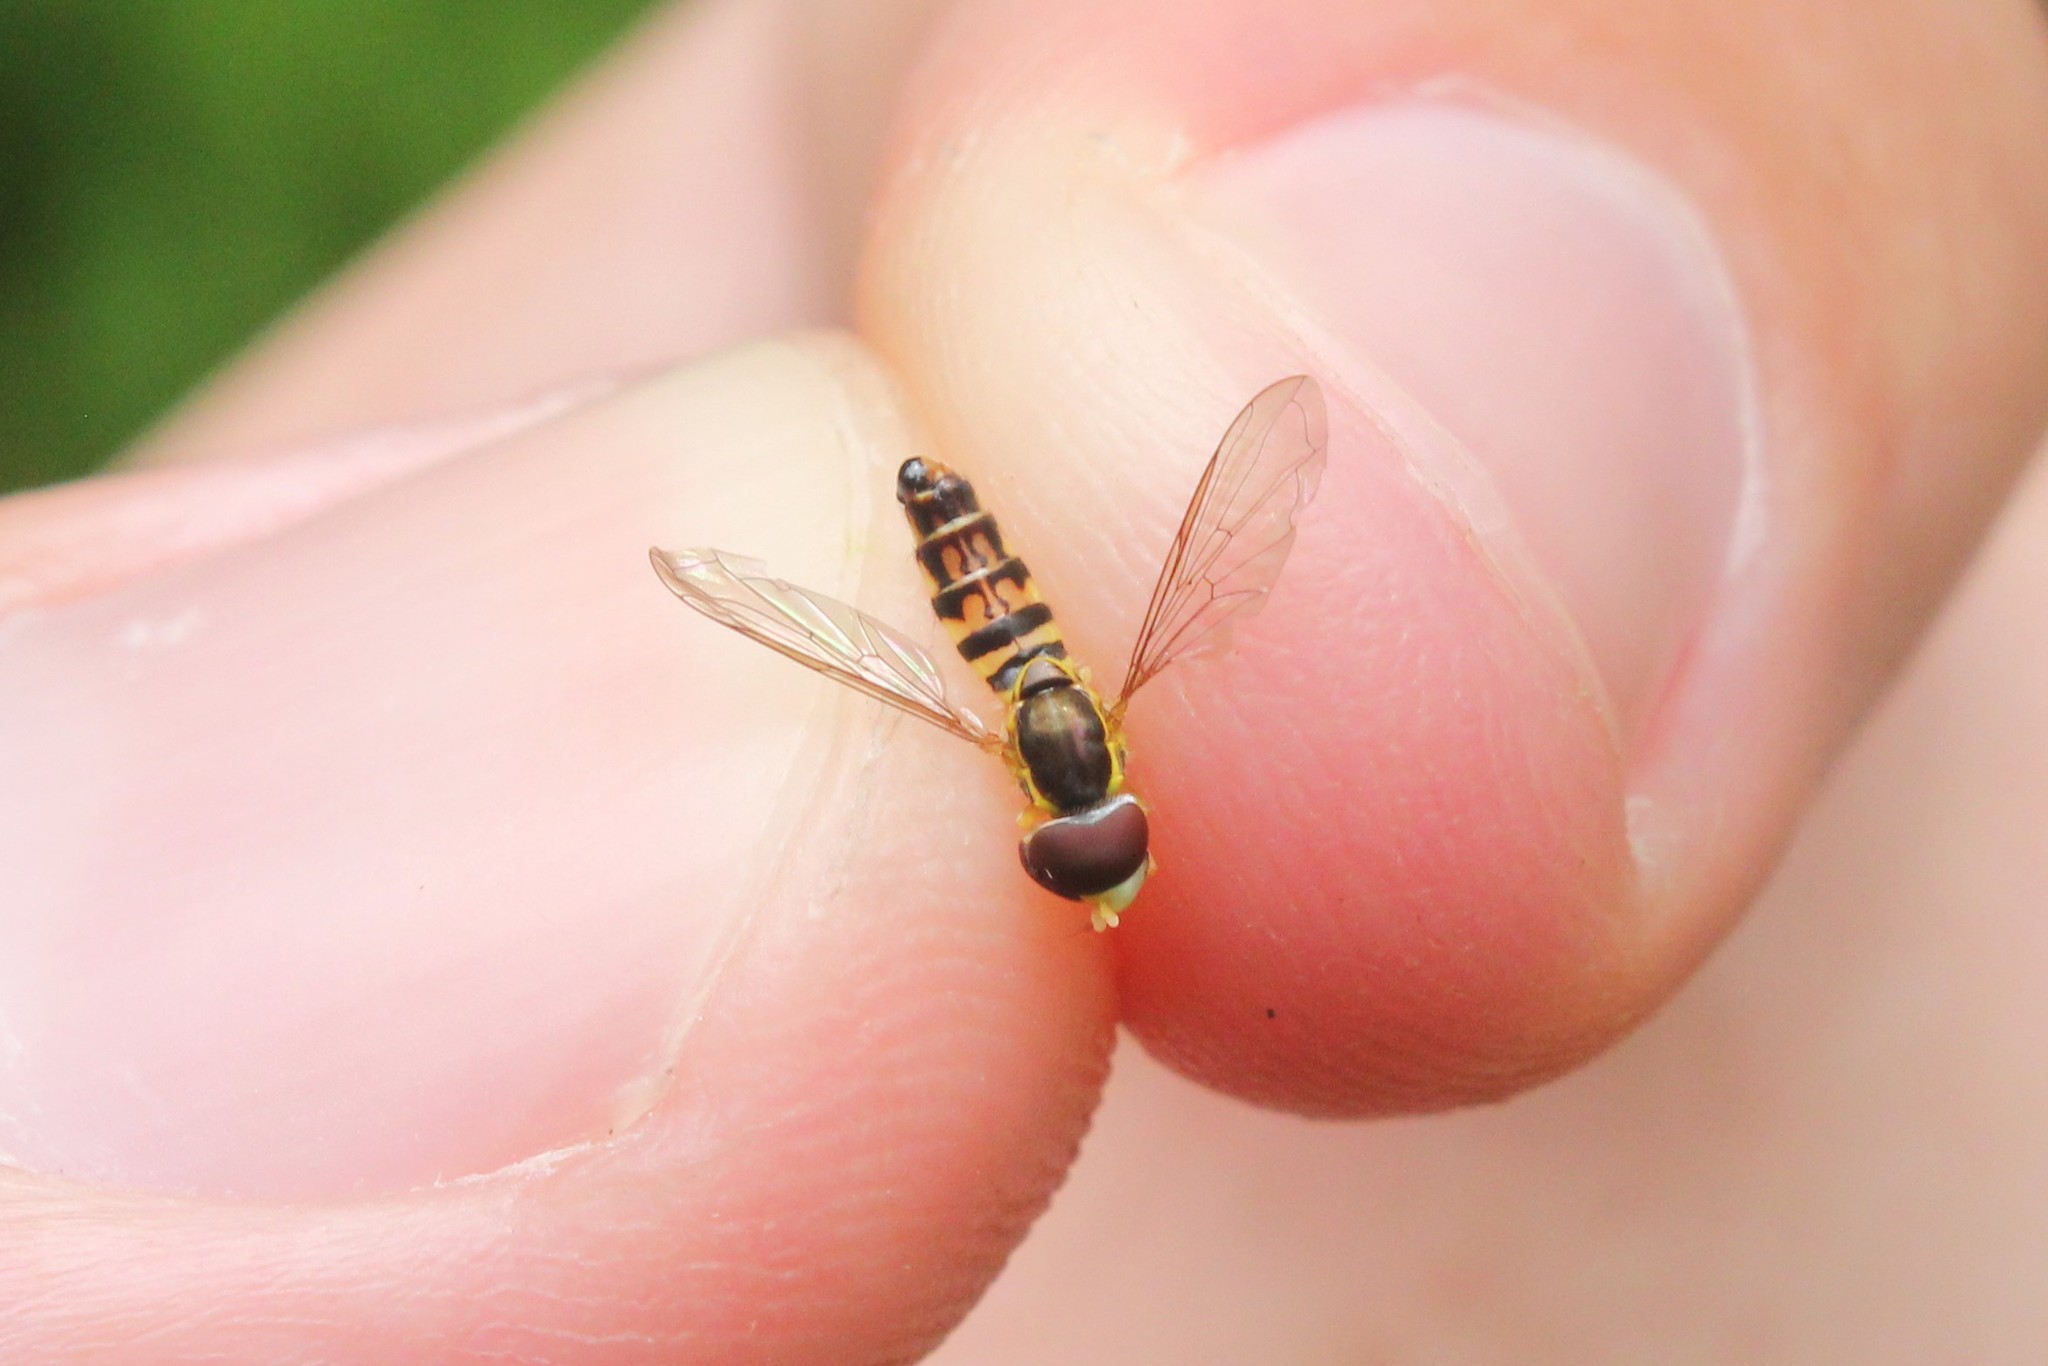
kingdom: Animalia
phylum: Arthropoda
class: Insecta
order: Diptera
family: Syrphidae
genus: Toxomerus
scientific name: Toxomerus geminatus
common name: Eastern calligrapher
